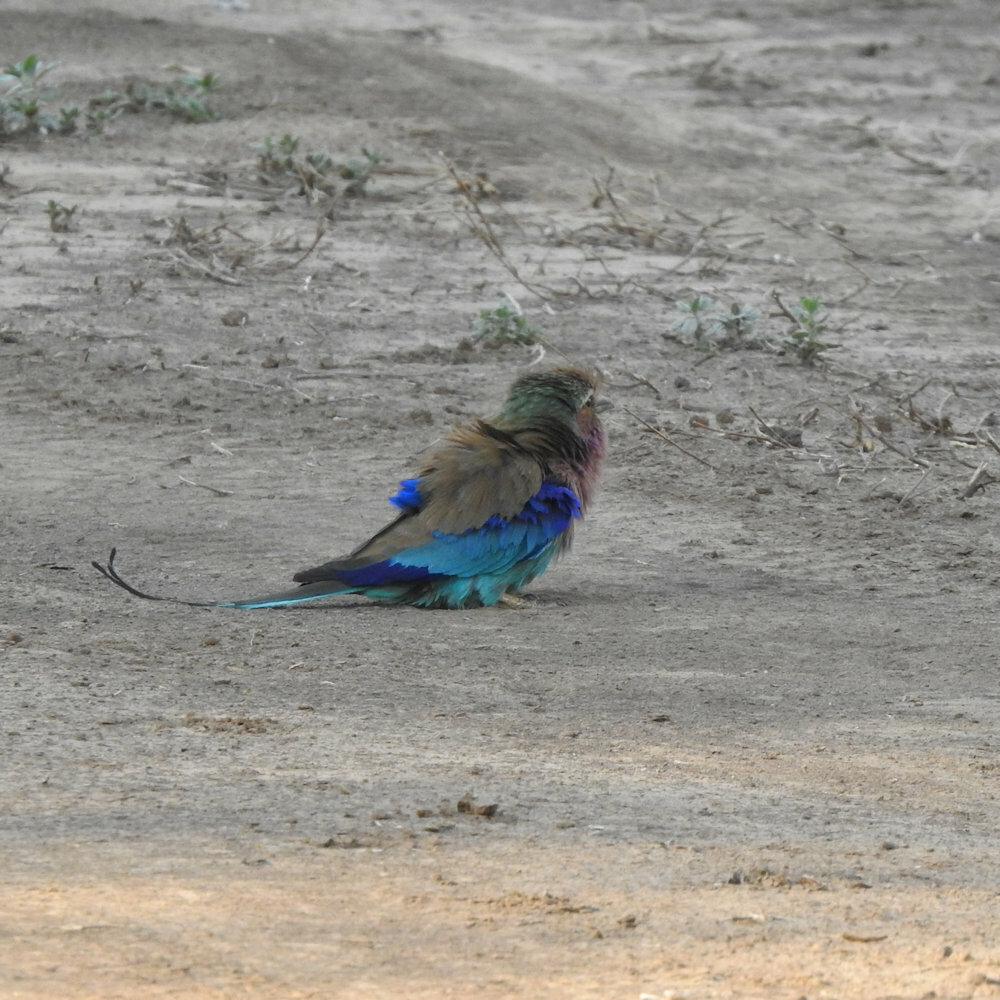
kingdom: Animalia
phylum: Chordata
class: Aves
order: Coraciiformes
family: Coraciidae
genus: Coracias
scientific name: Coracias caudatus
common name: Lilac-breasted roller
